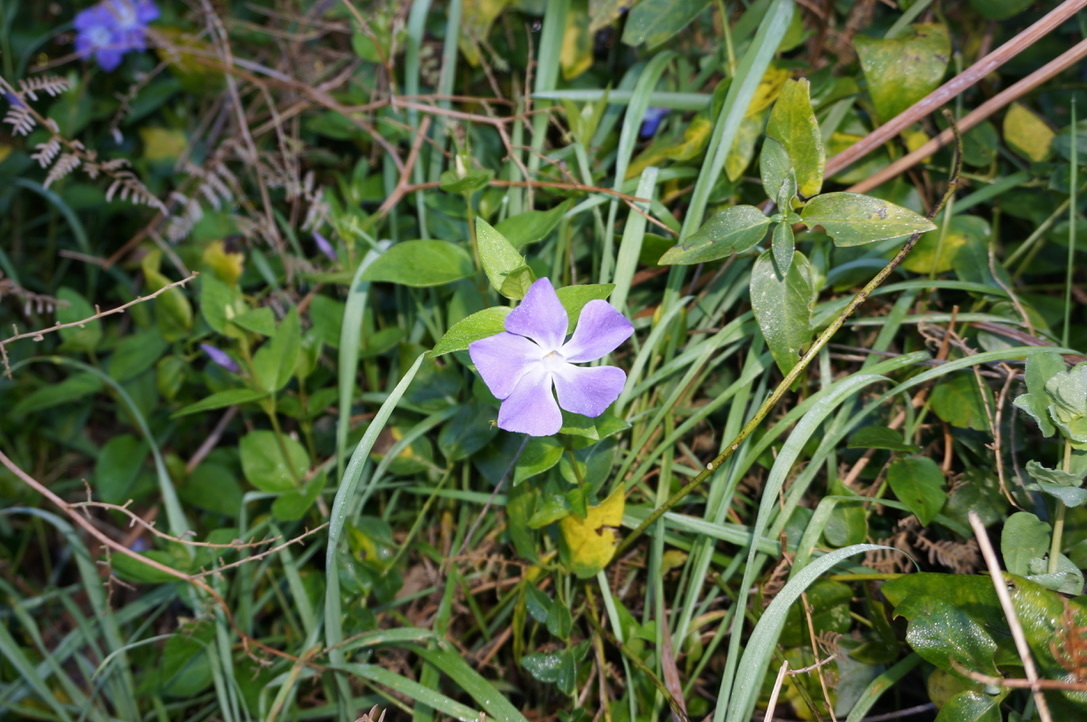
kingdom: Plantae
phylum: Tracheophyta
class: Magnoliopsida
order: Gentianales
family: Apocynaceae
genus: Vinca
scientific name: Vinca major
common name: Greater periwinkle
